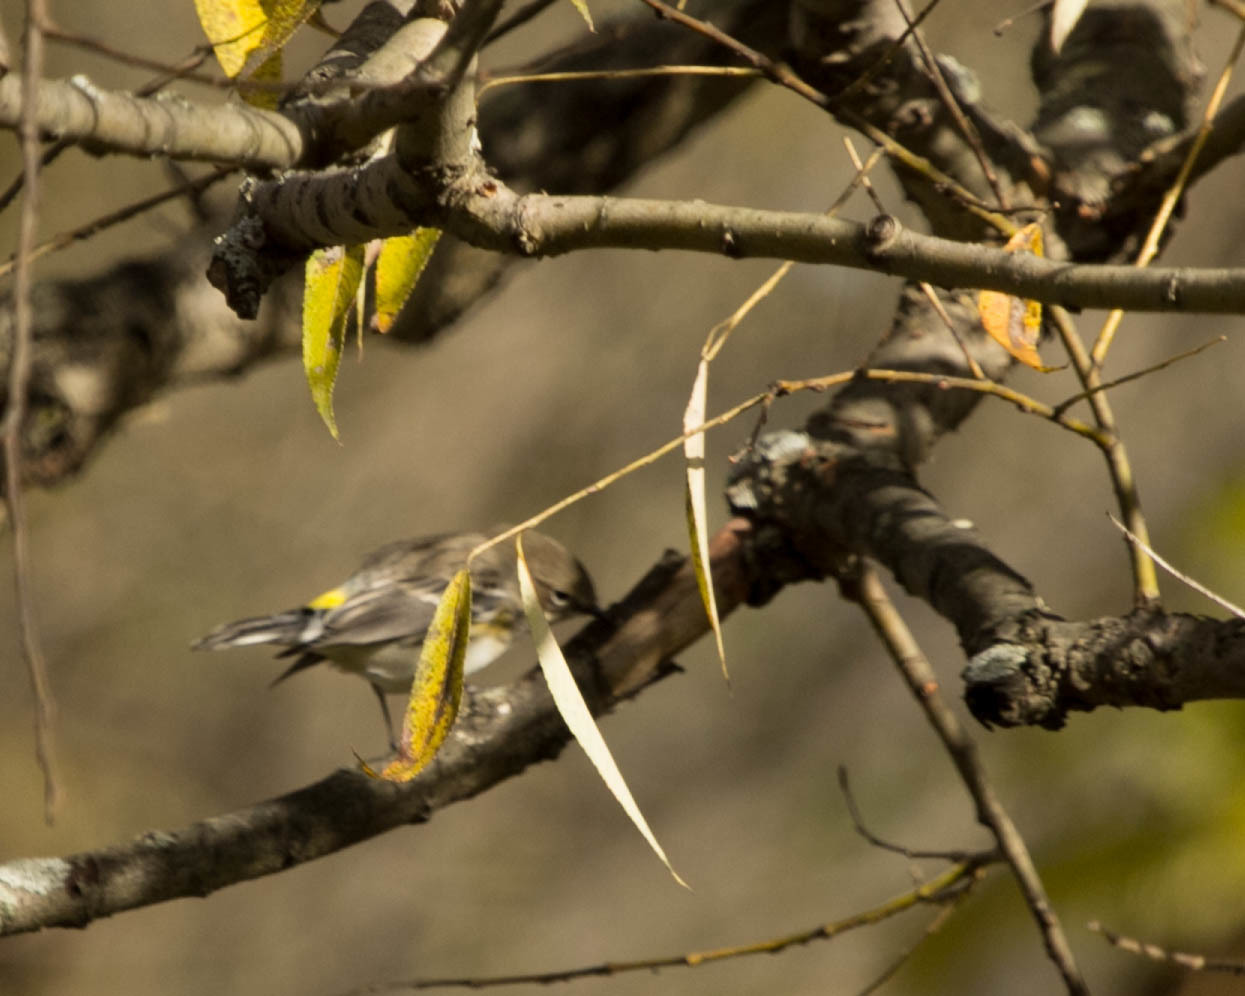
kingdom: Animalia
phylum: Chordata
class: Aves
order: Passeriformes
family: Parulidae
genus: Setophaga
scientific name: Setophaga coronata
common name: Myrtle warbler
